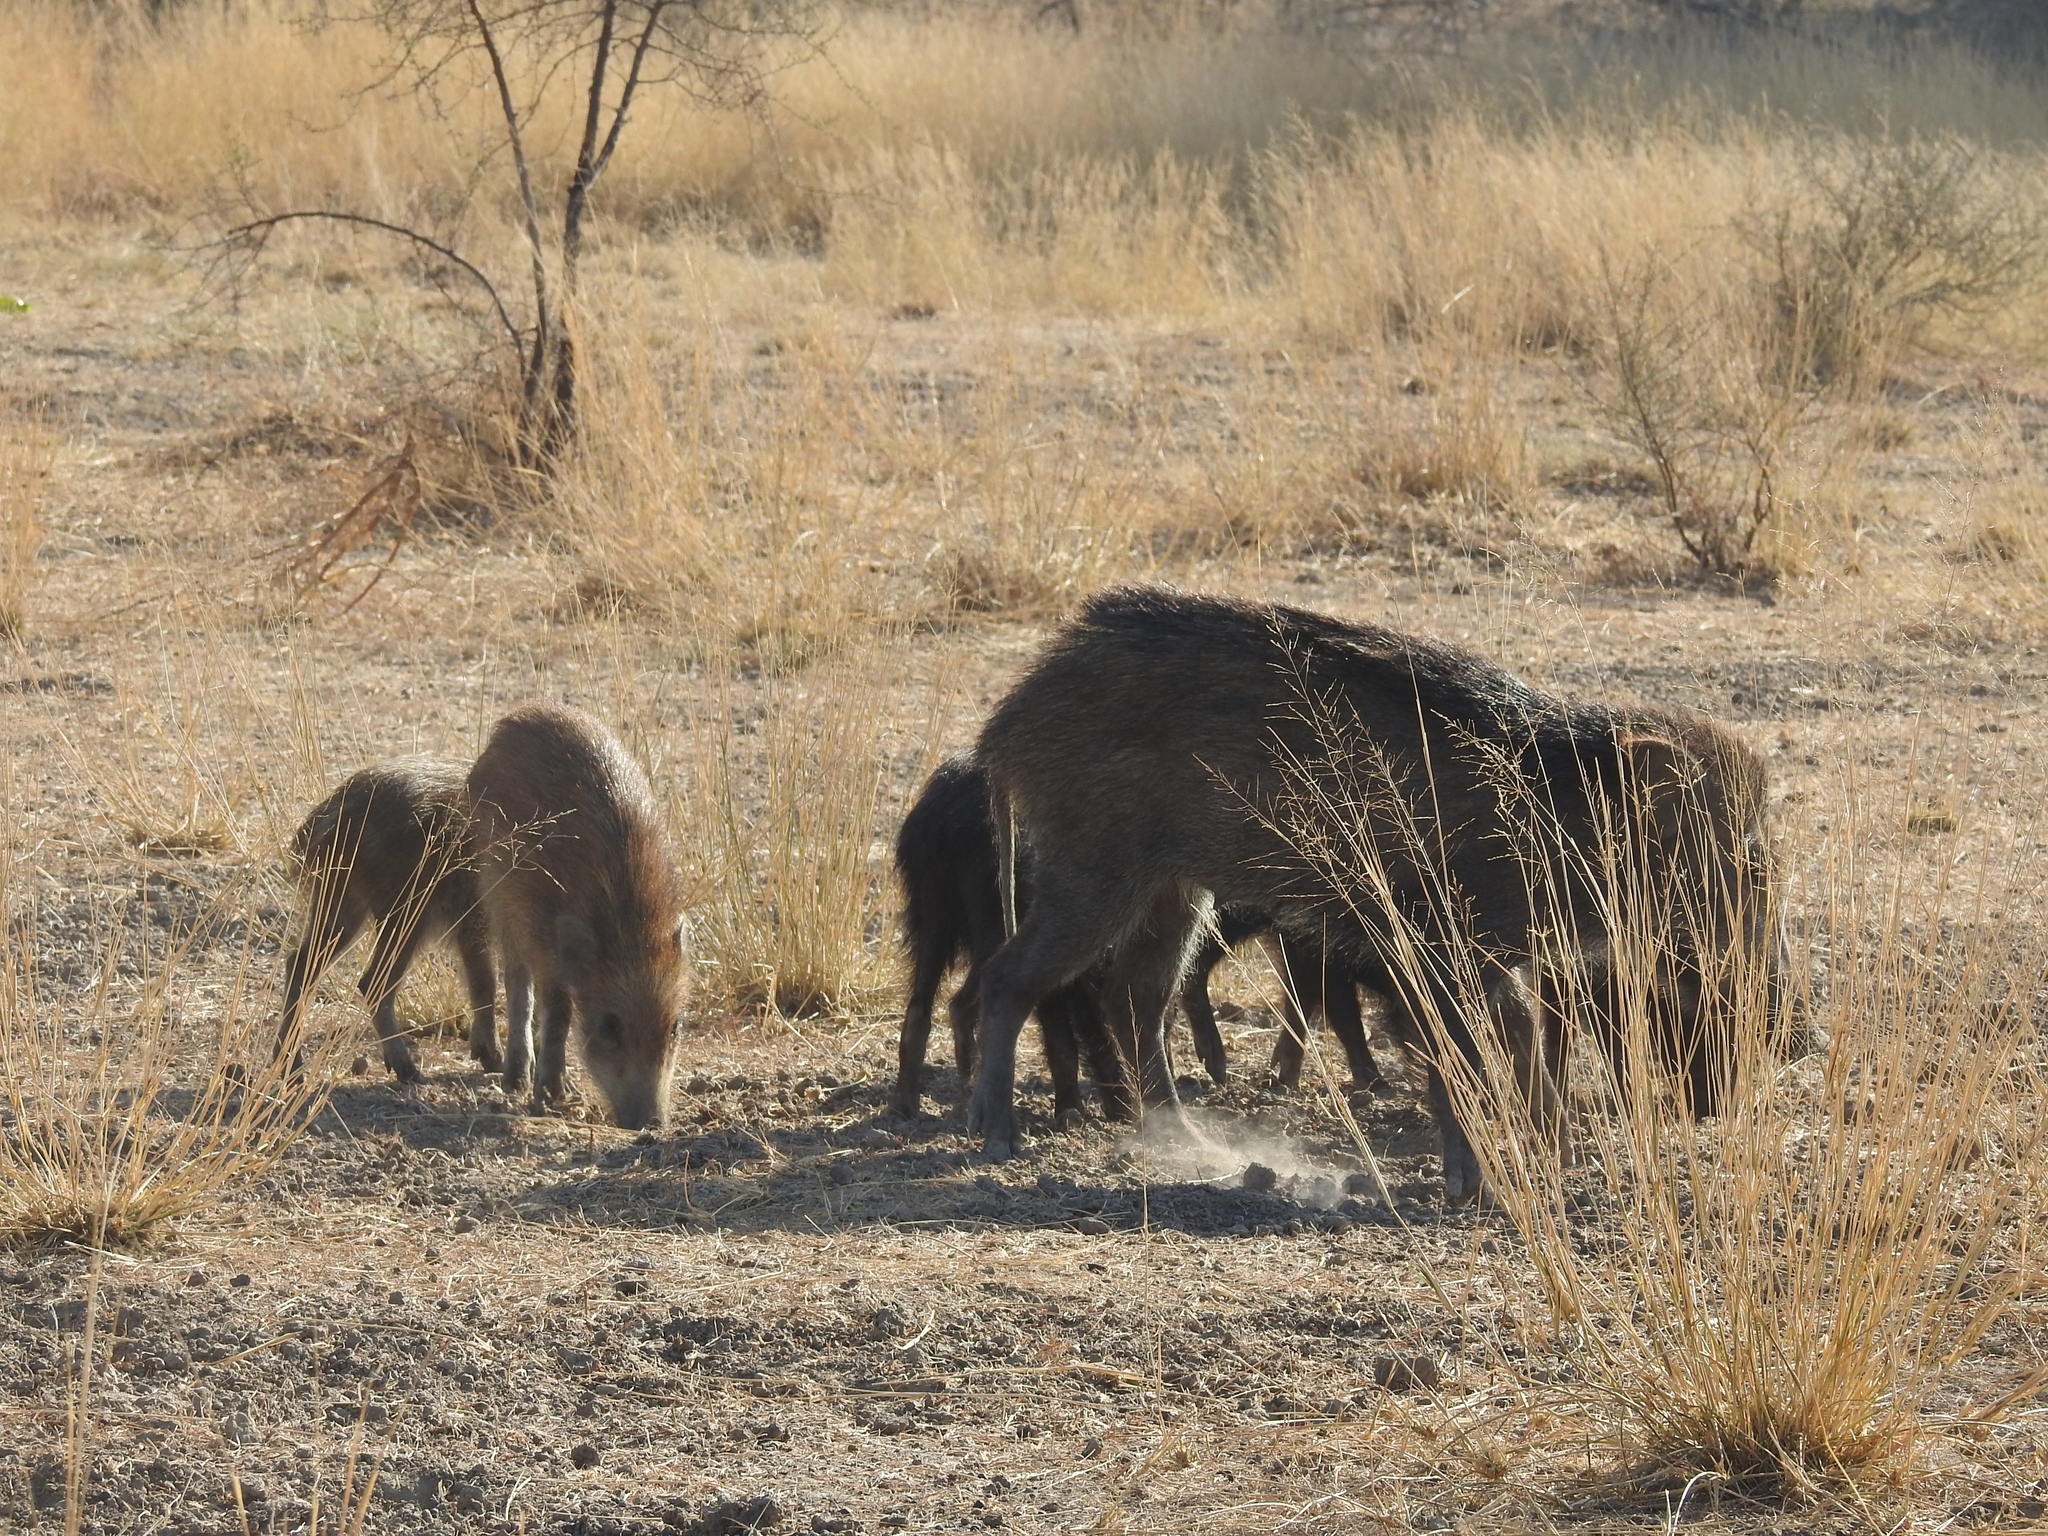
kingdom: Animalia
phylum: Chordata
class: Mammalia
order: Artiodactyla
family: Suidae
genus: Sus
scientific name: Sus scrofa
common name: Wild boar
